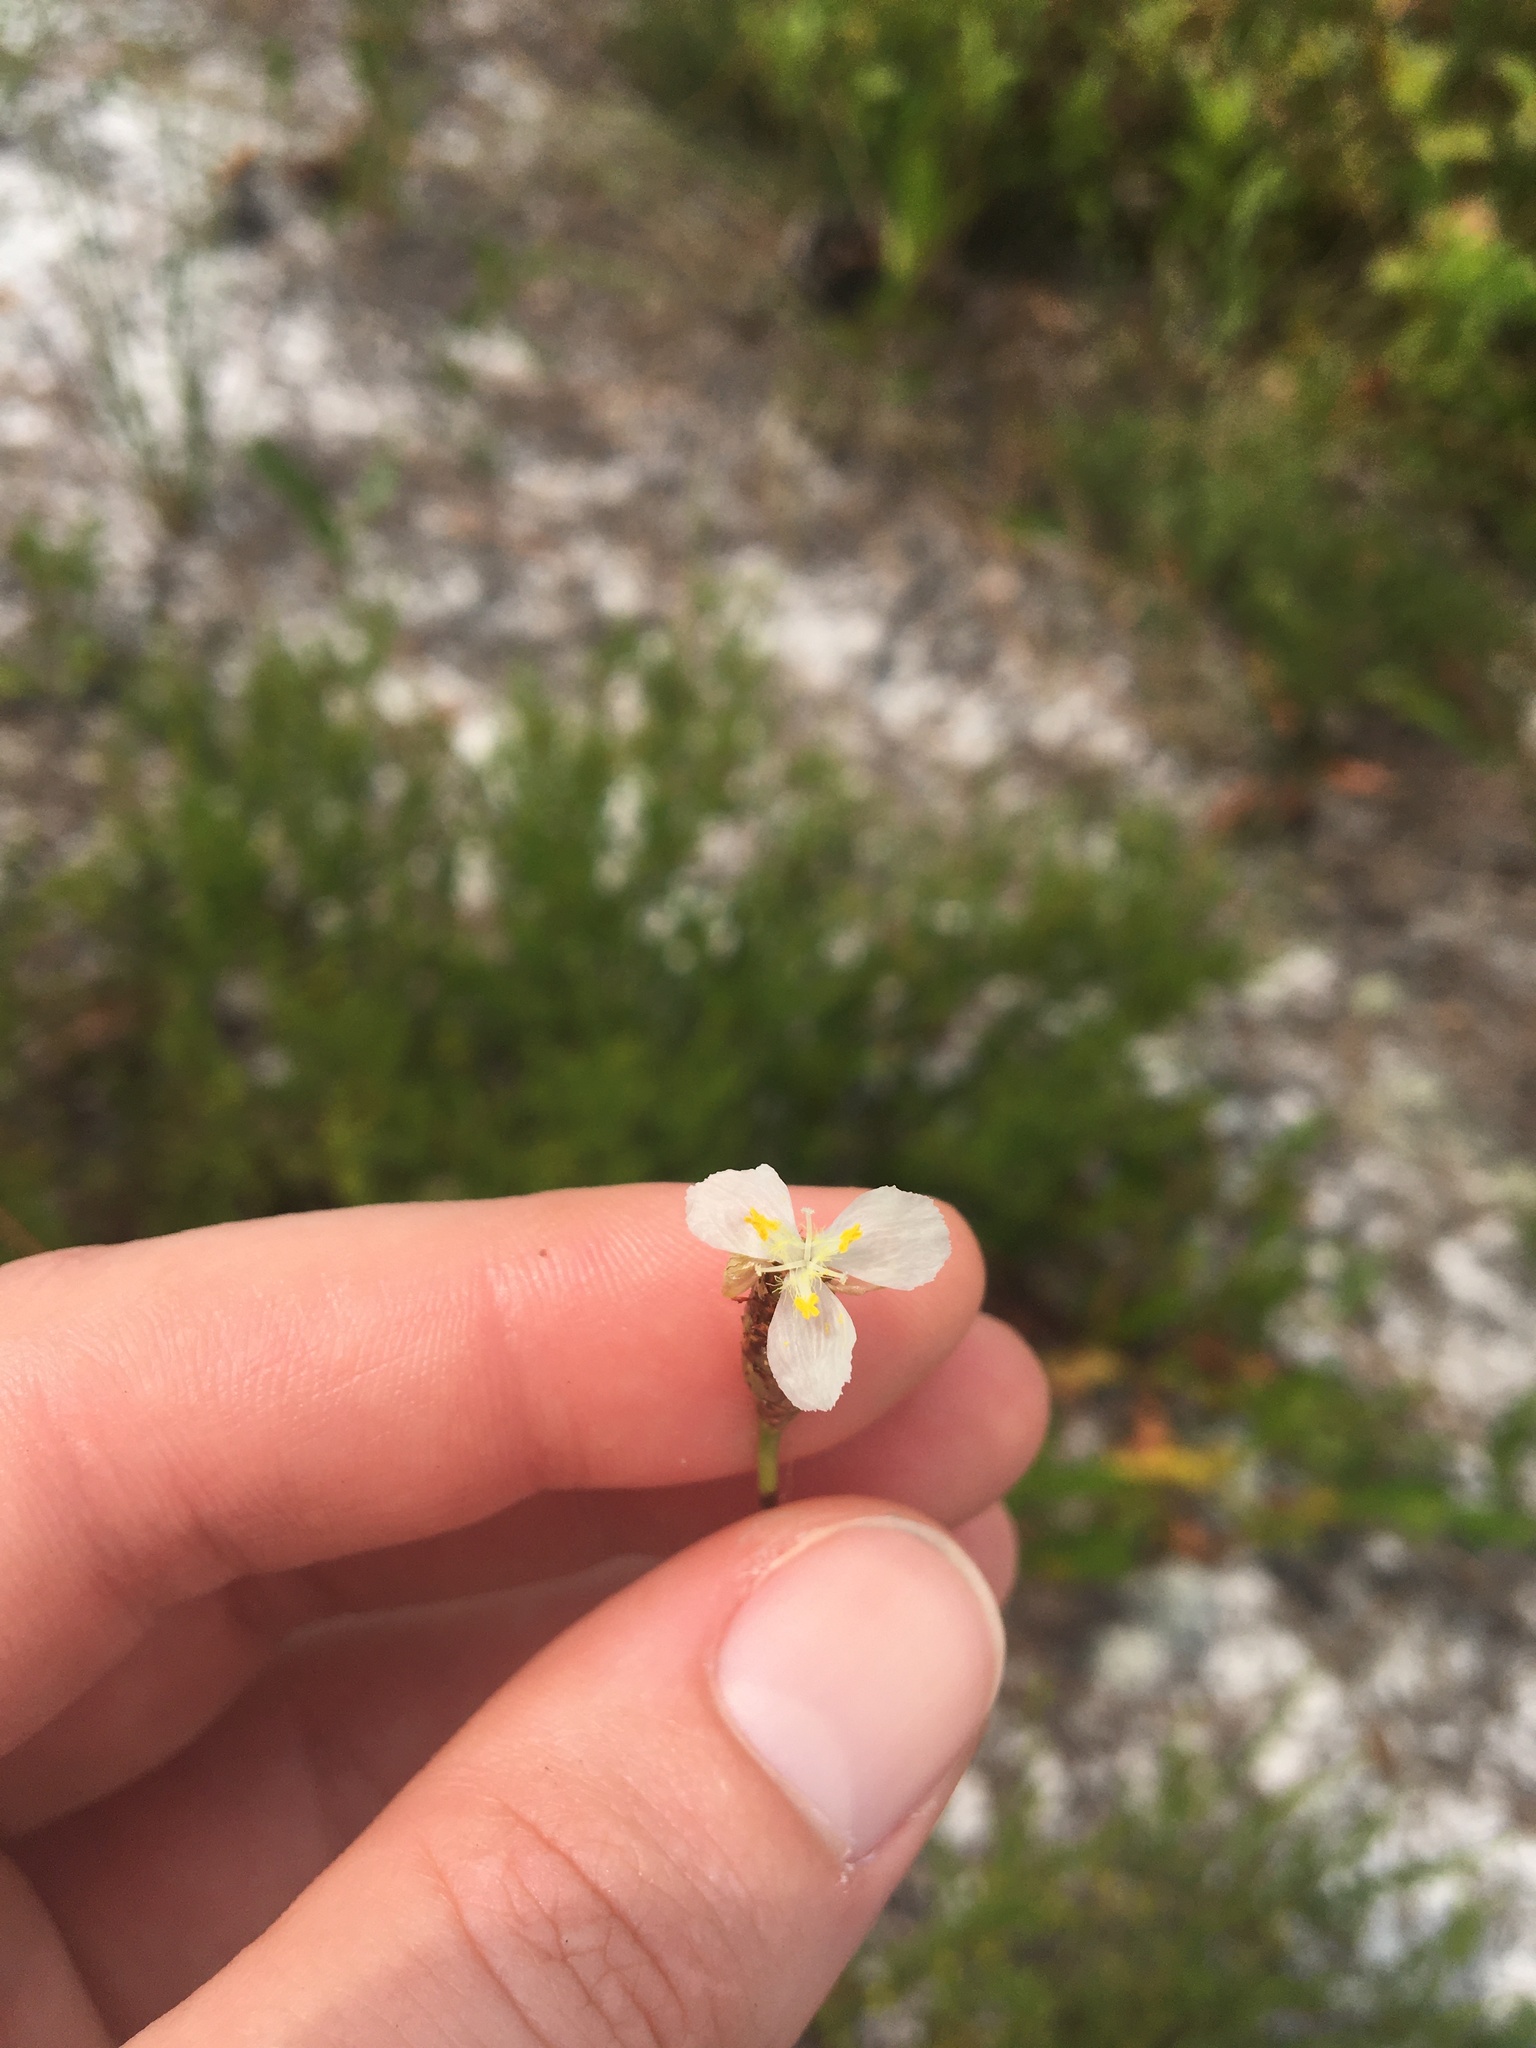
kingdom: Plantae
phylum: Tracheophyta
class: Liliopsida
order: Poales
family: Xyridaceae
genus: Xyris
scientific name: Xyris caroliniana
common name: Carolina yellow-eyed-grass
